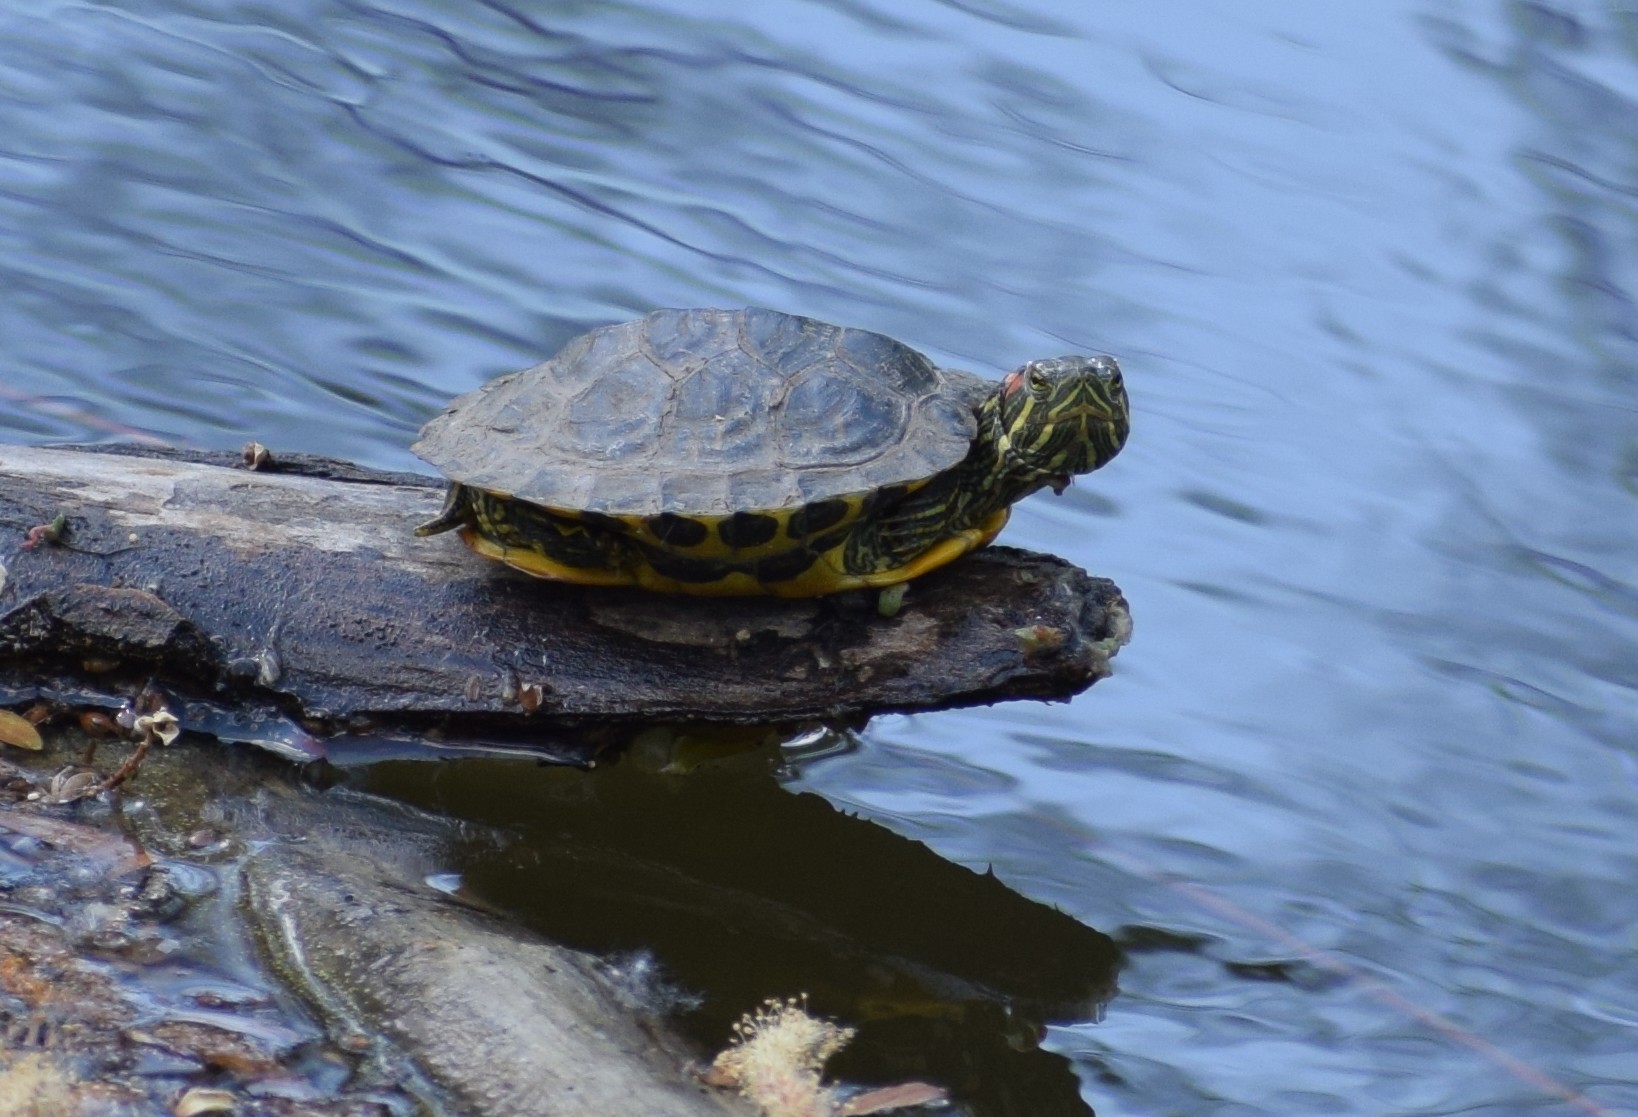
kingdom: Animalia
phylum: Chordata
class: Testudines
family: Emydidae
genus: Trachemys
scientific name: Trachemys scripta
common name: Slider
